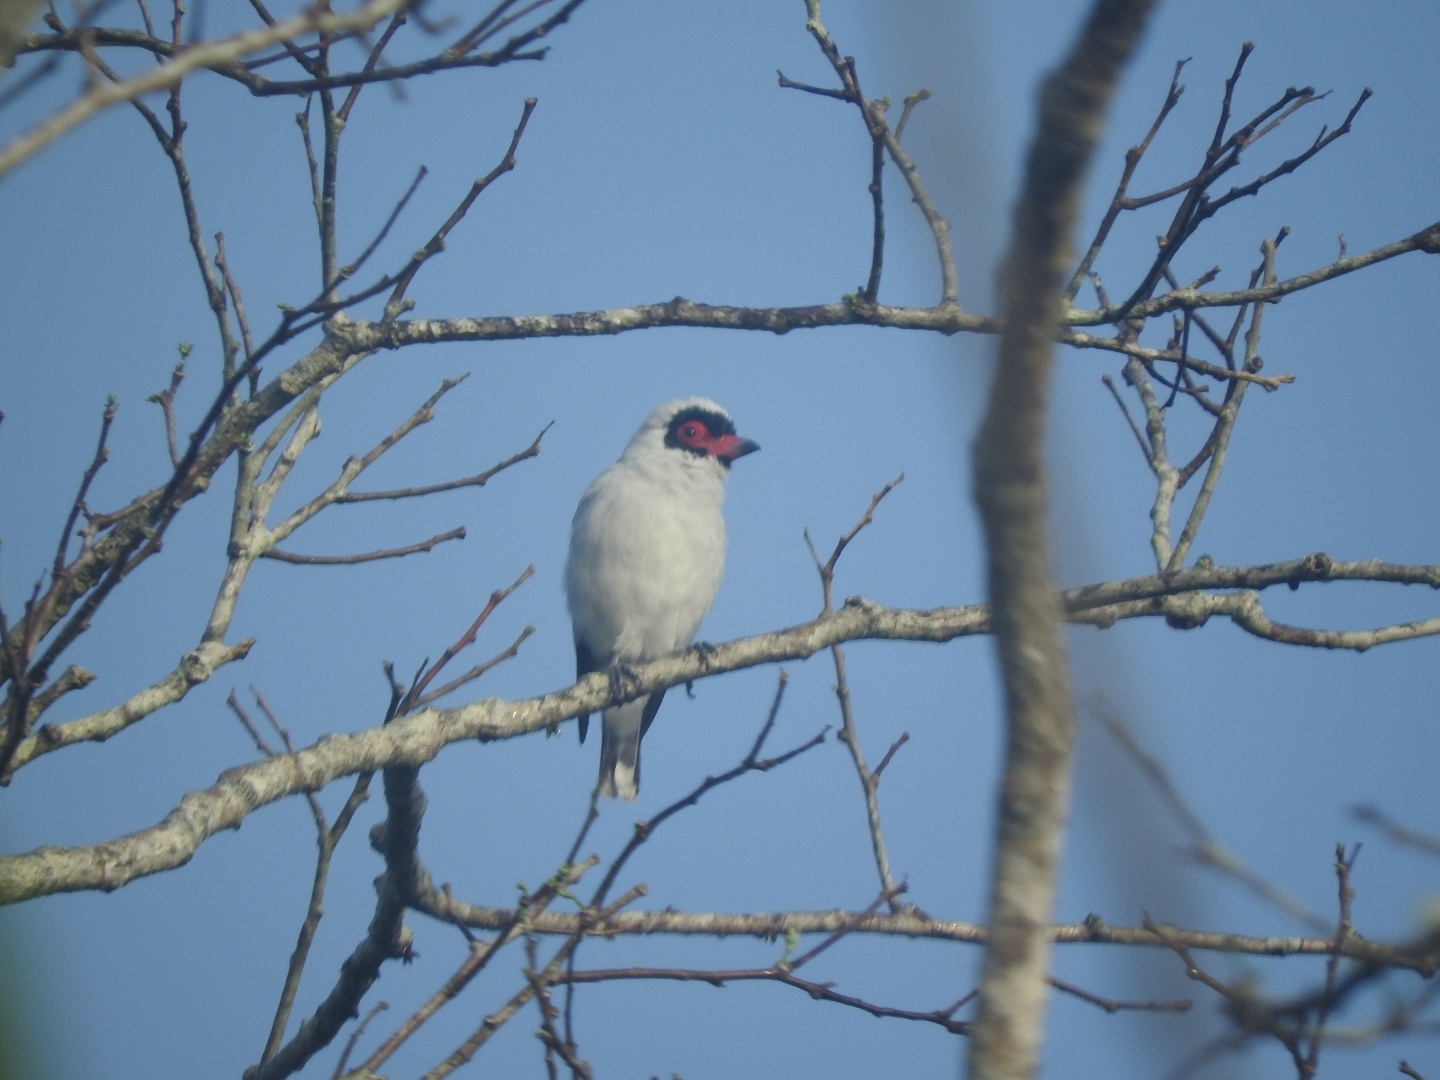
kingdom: Animalia
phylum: Chordata
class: Aves
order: Passeriformes
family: Cotingidae
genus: Tityra
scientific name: Tityra semifasciata
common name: Masked tityra
